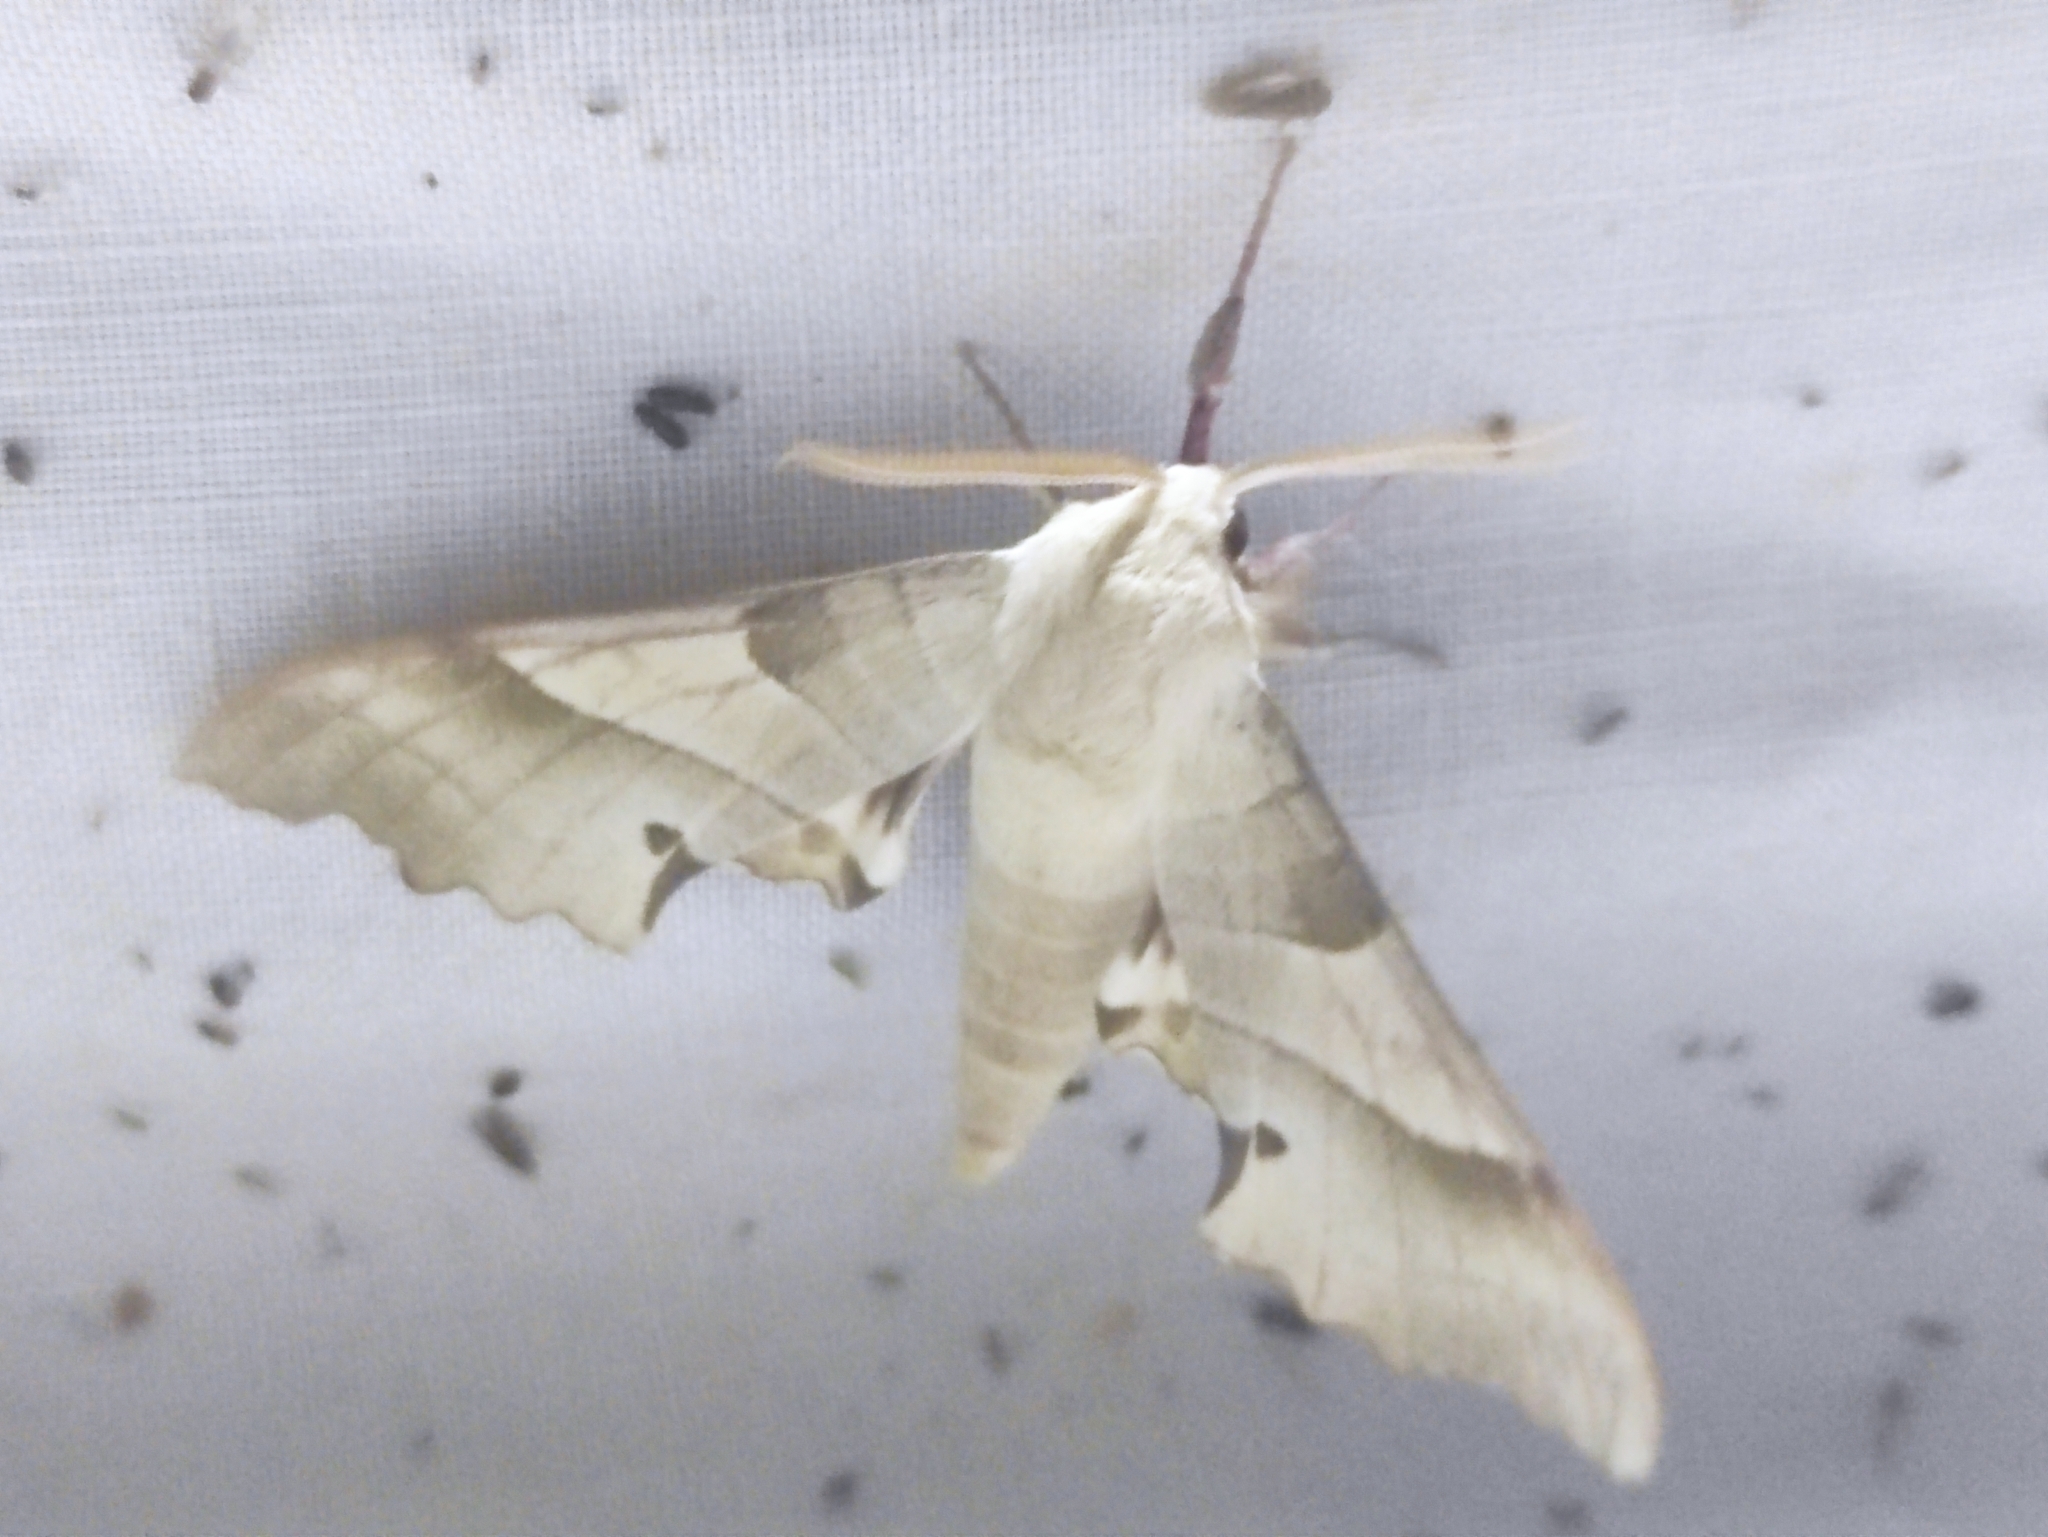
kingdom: Animalia
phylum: Arthropoda
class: Insecta
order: Lepidoptera
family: Sphingidae
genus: Marumba
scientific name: Marumba quercus
